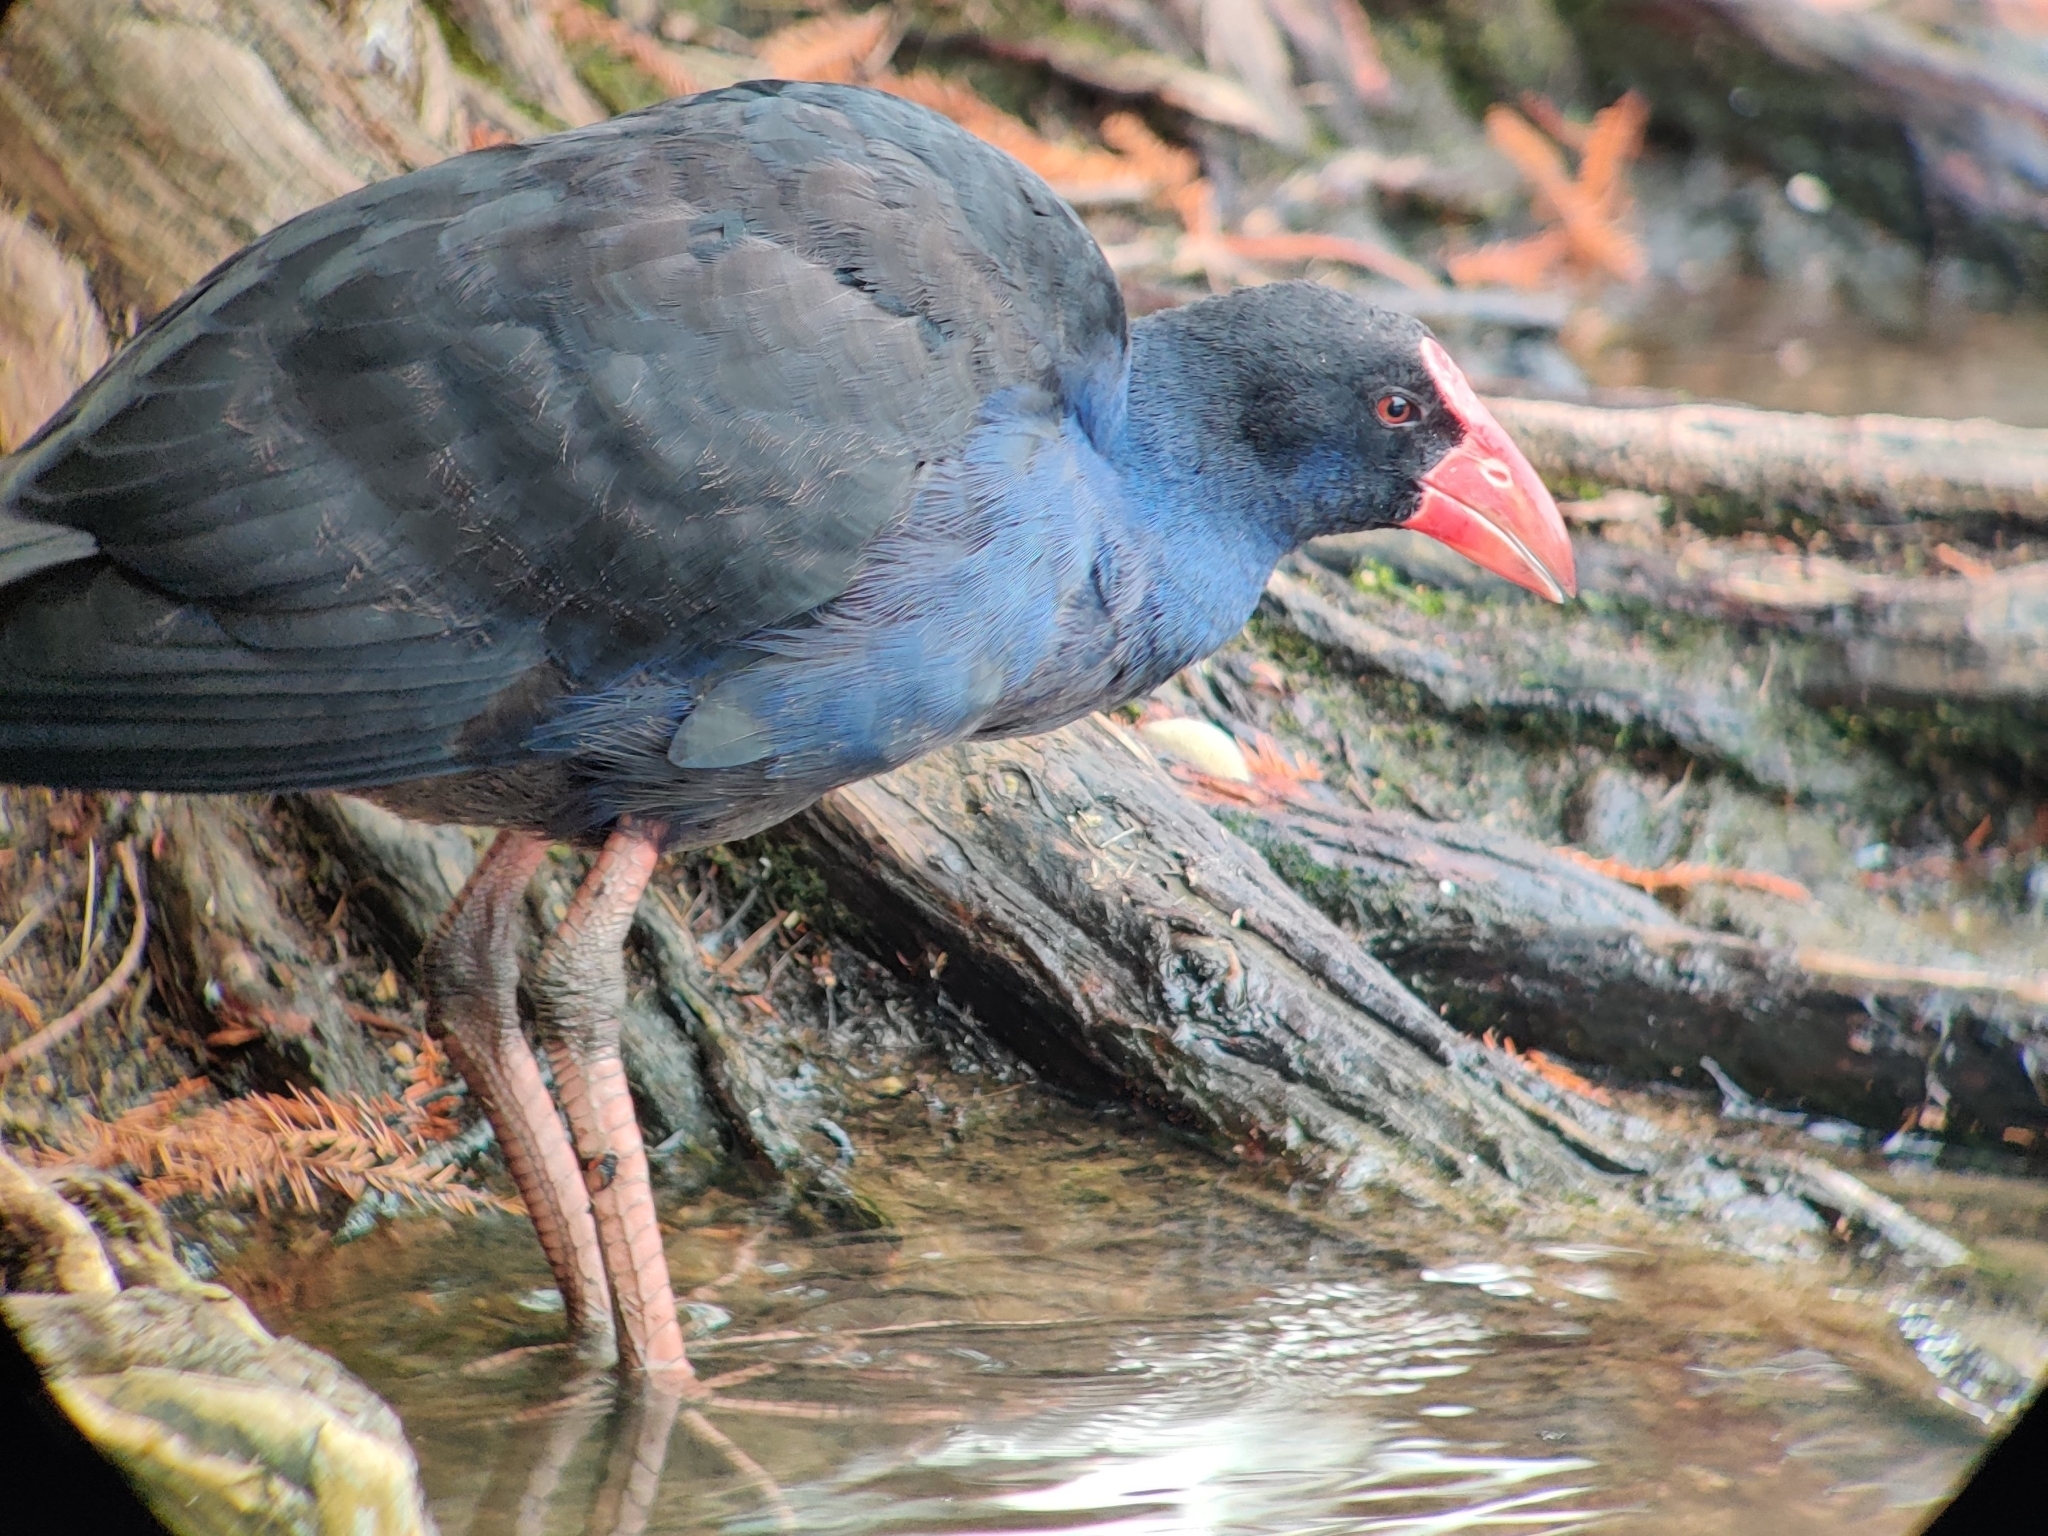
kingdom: Animalia
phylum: Chordata
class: Aves
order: Gruiformes
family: Rallidae
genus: Porphyrio
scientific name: Porphyrio melanotus
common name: Australasian swamphen
